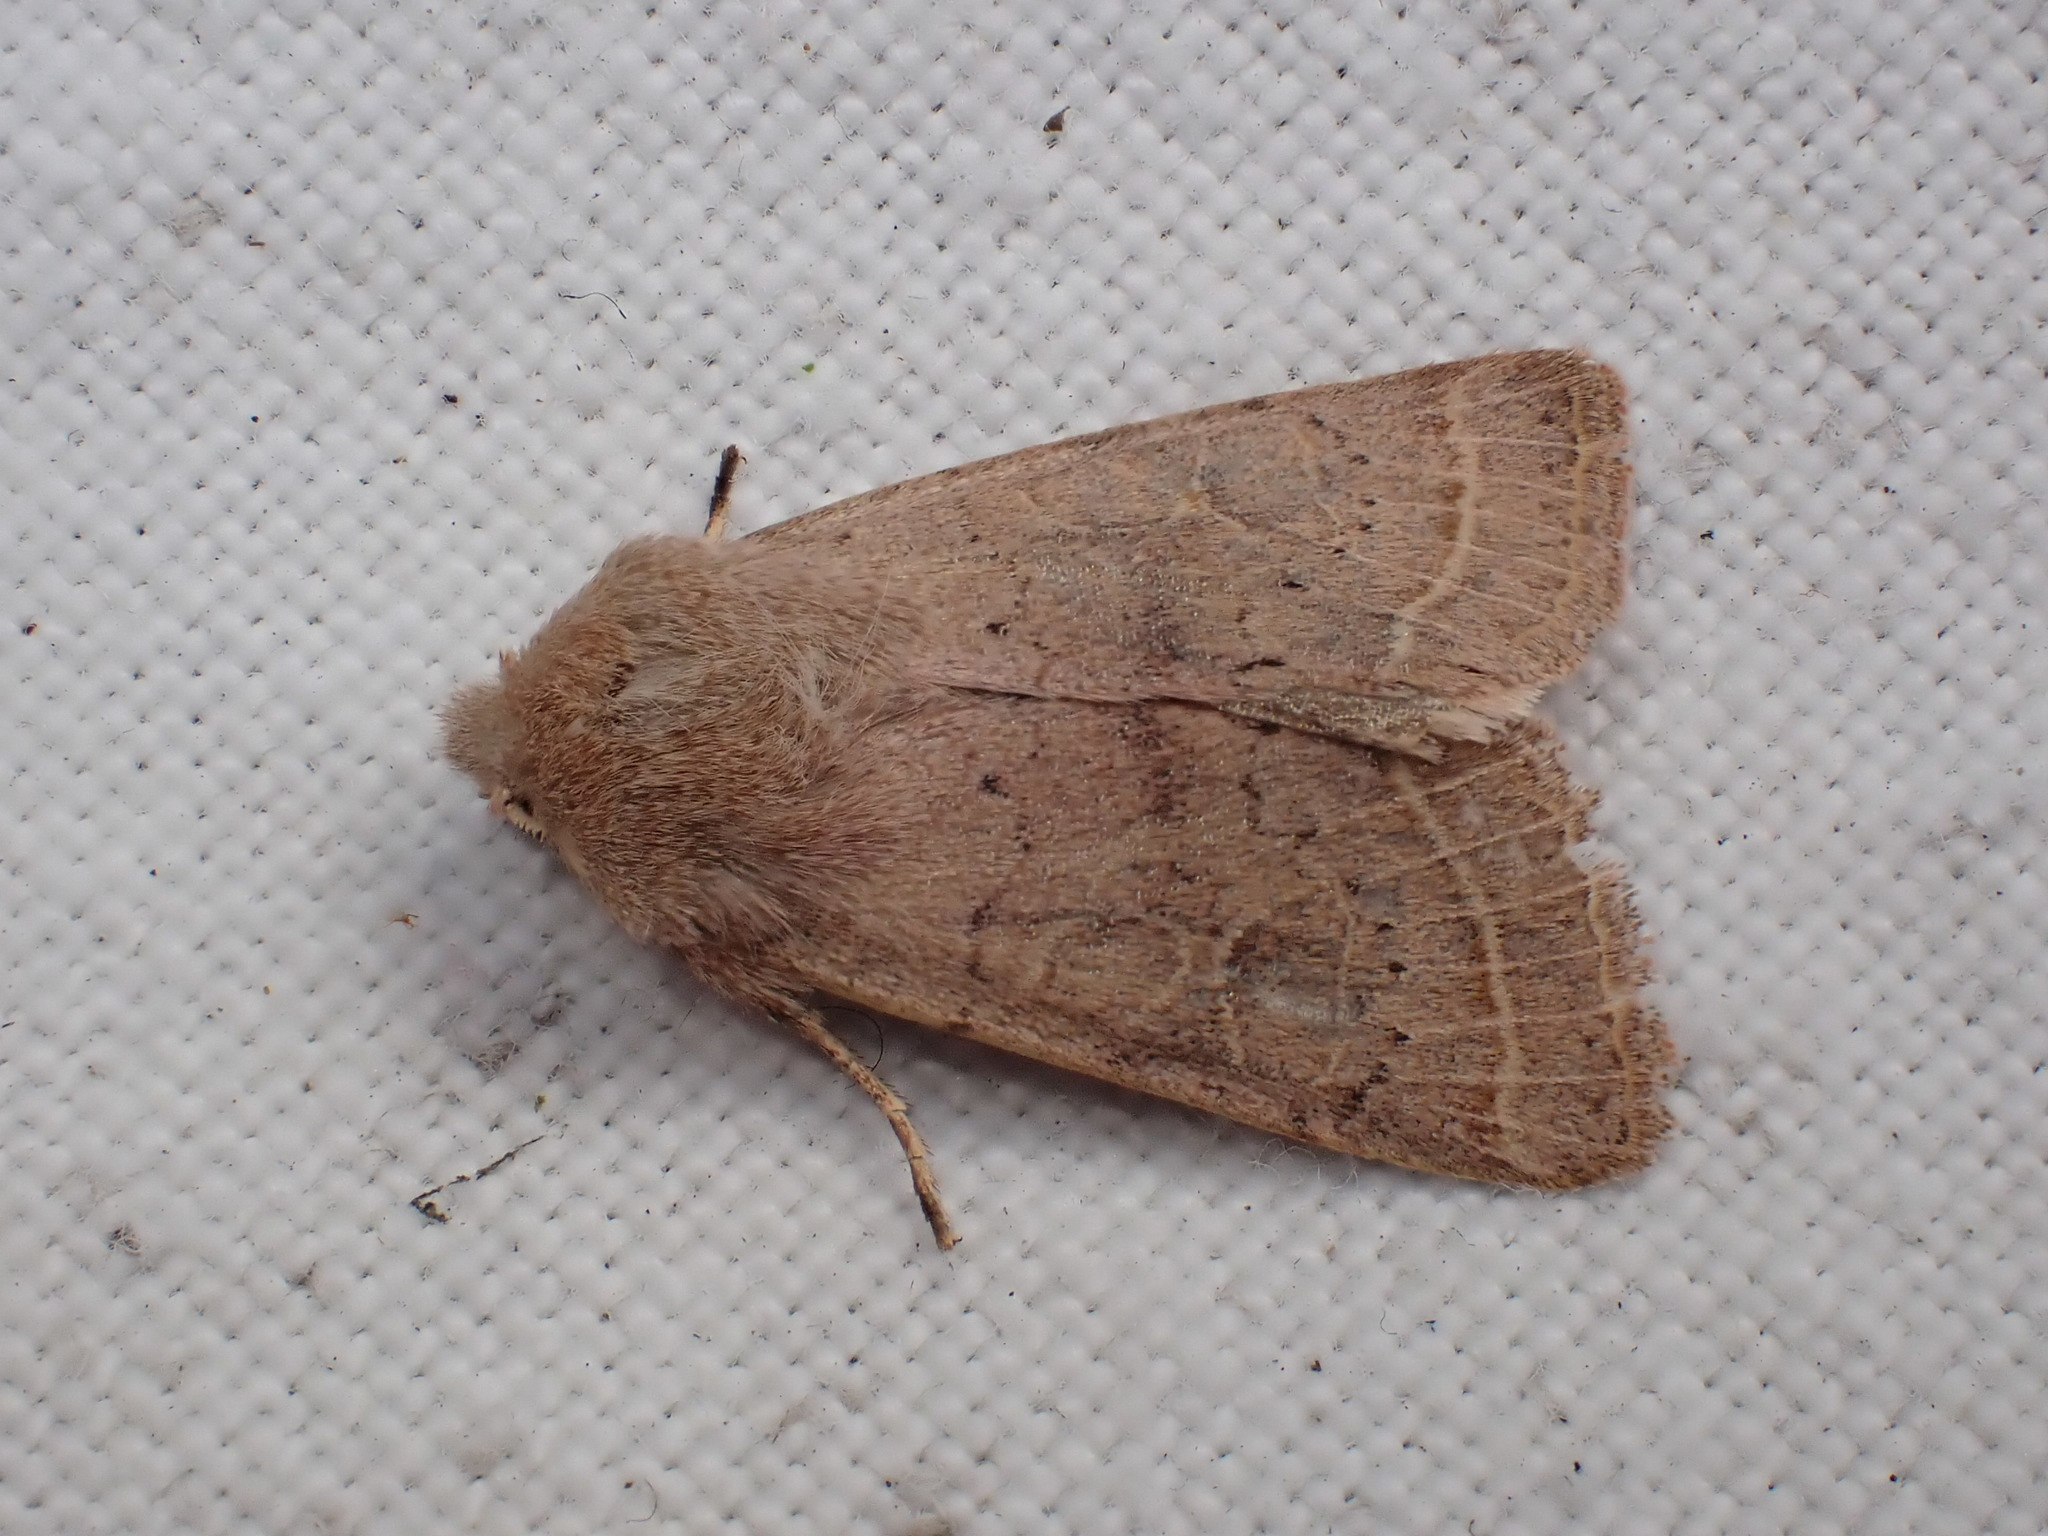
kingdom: Animalia
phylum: Arthropoda
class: Insecta
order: Lepidoptera
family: Noctuidae
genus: Orthosia
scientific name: Orthosia cerasi
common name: Common quaker
